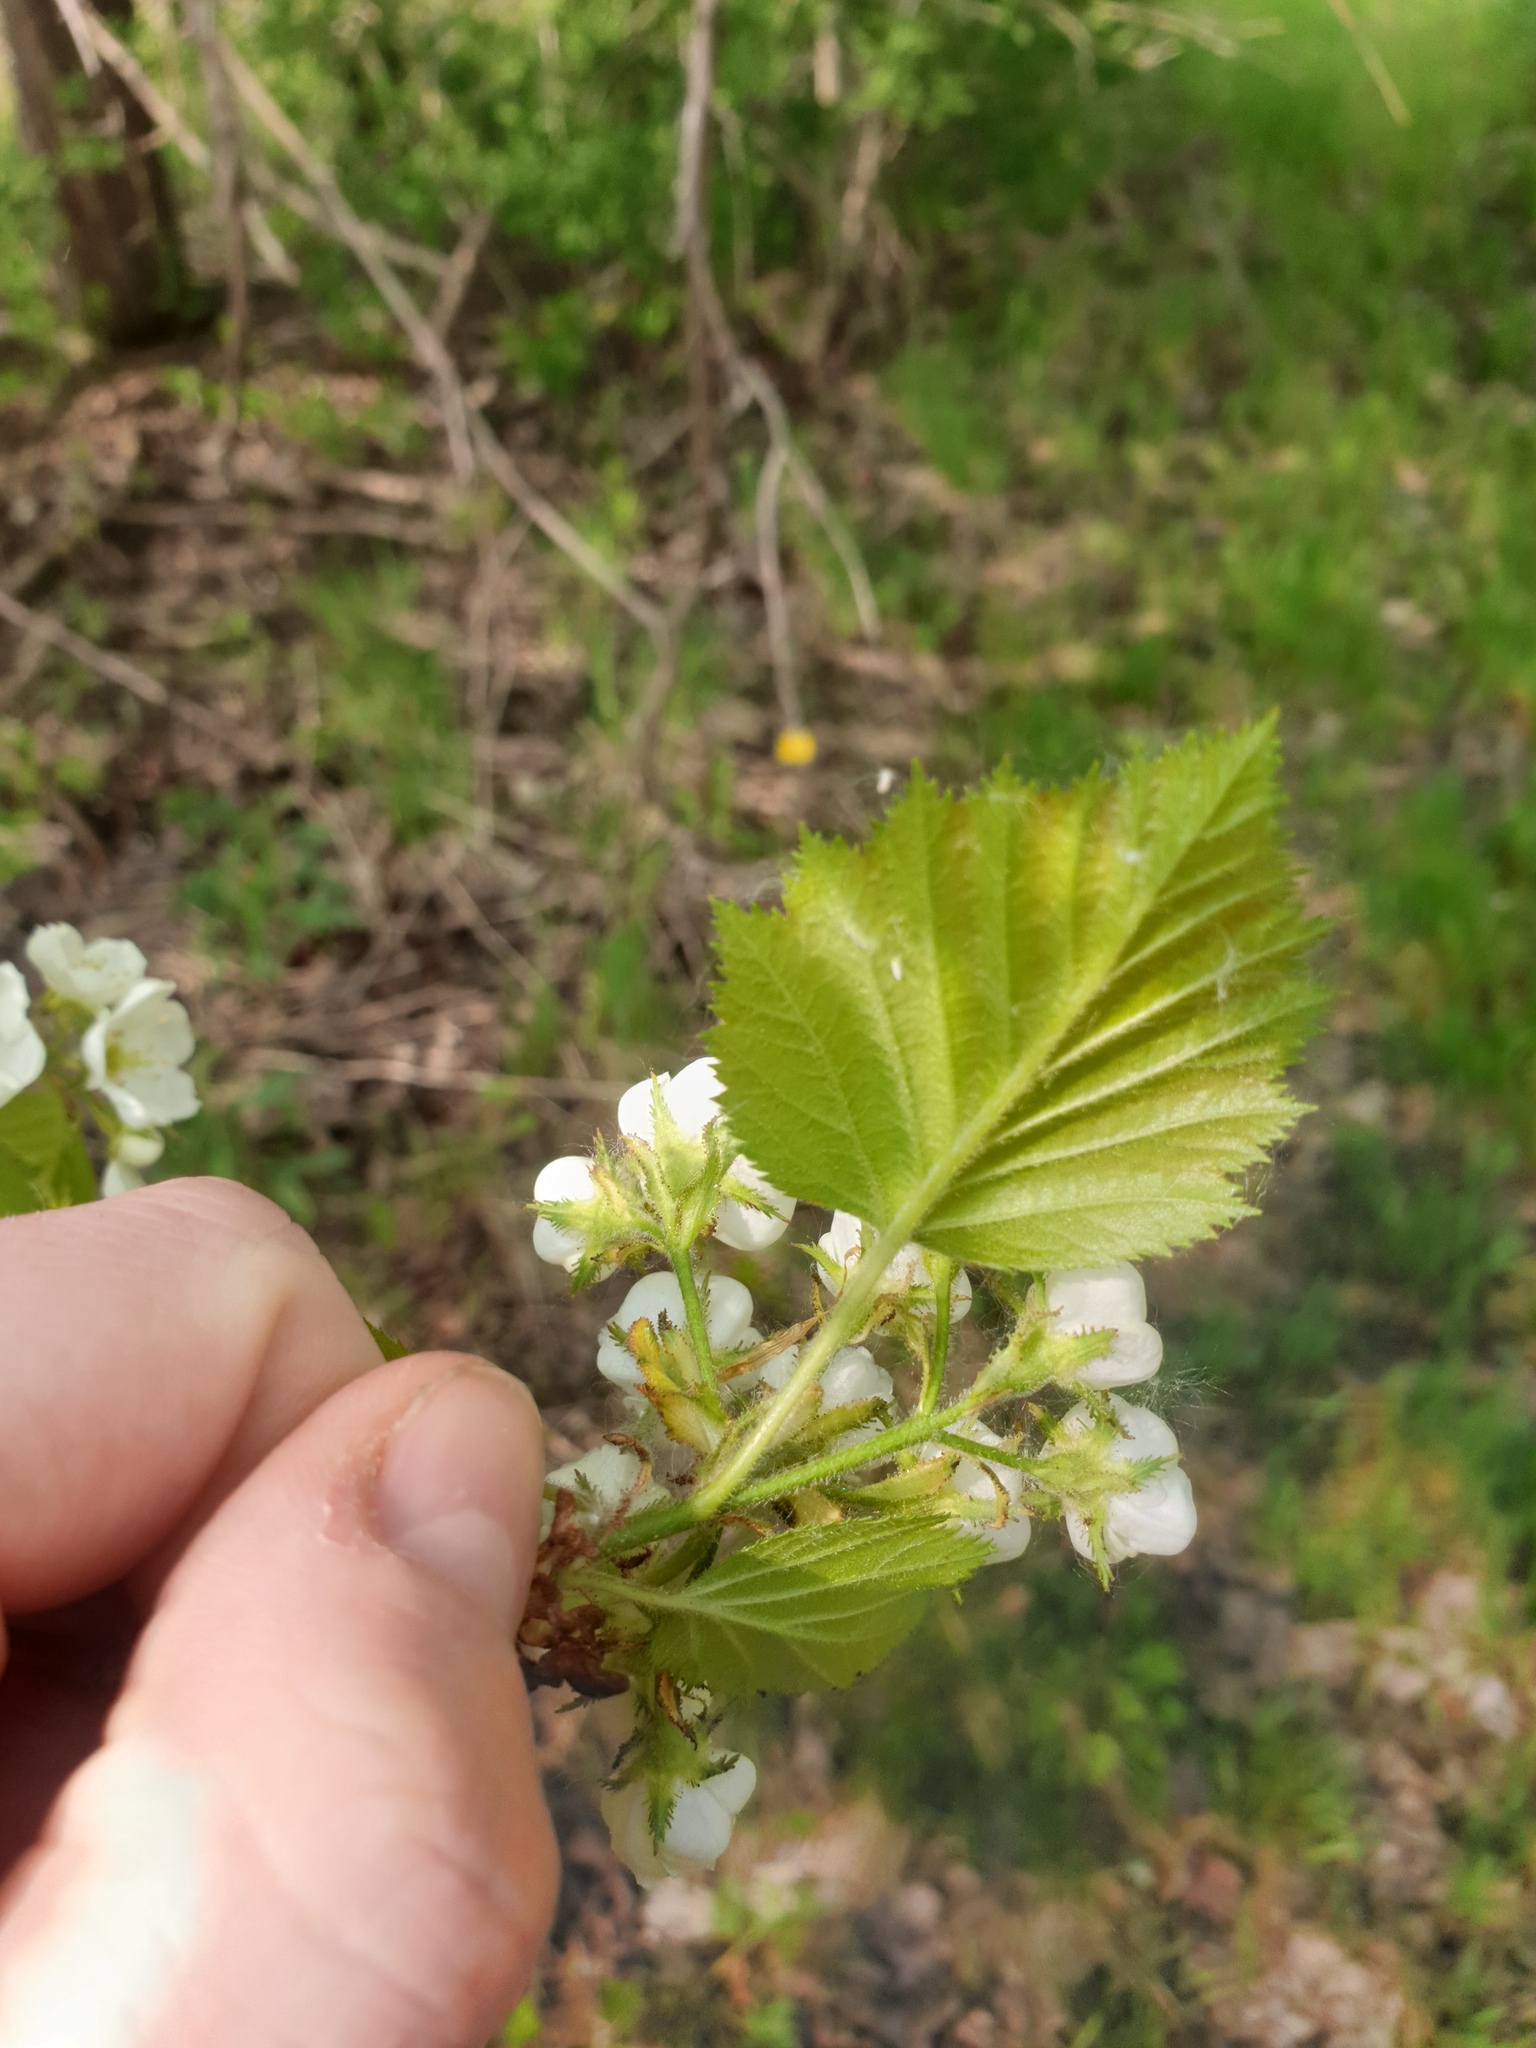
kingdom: Plantae
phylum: Tracheophyta
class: Magnoliopsida
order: Rosales
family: Rosaceae
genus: Crataegus
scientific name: Crataegus pennsylvanica
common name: Pennsylvania hawthorn
